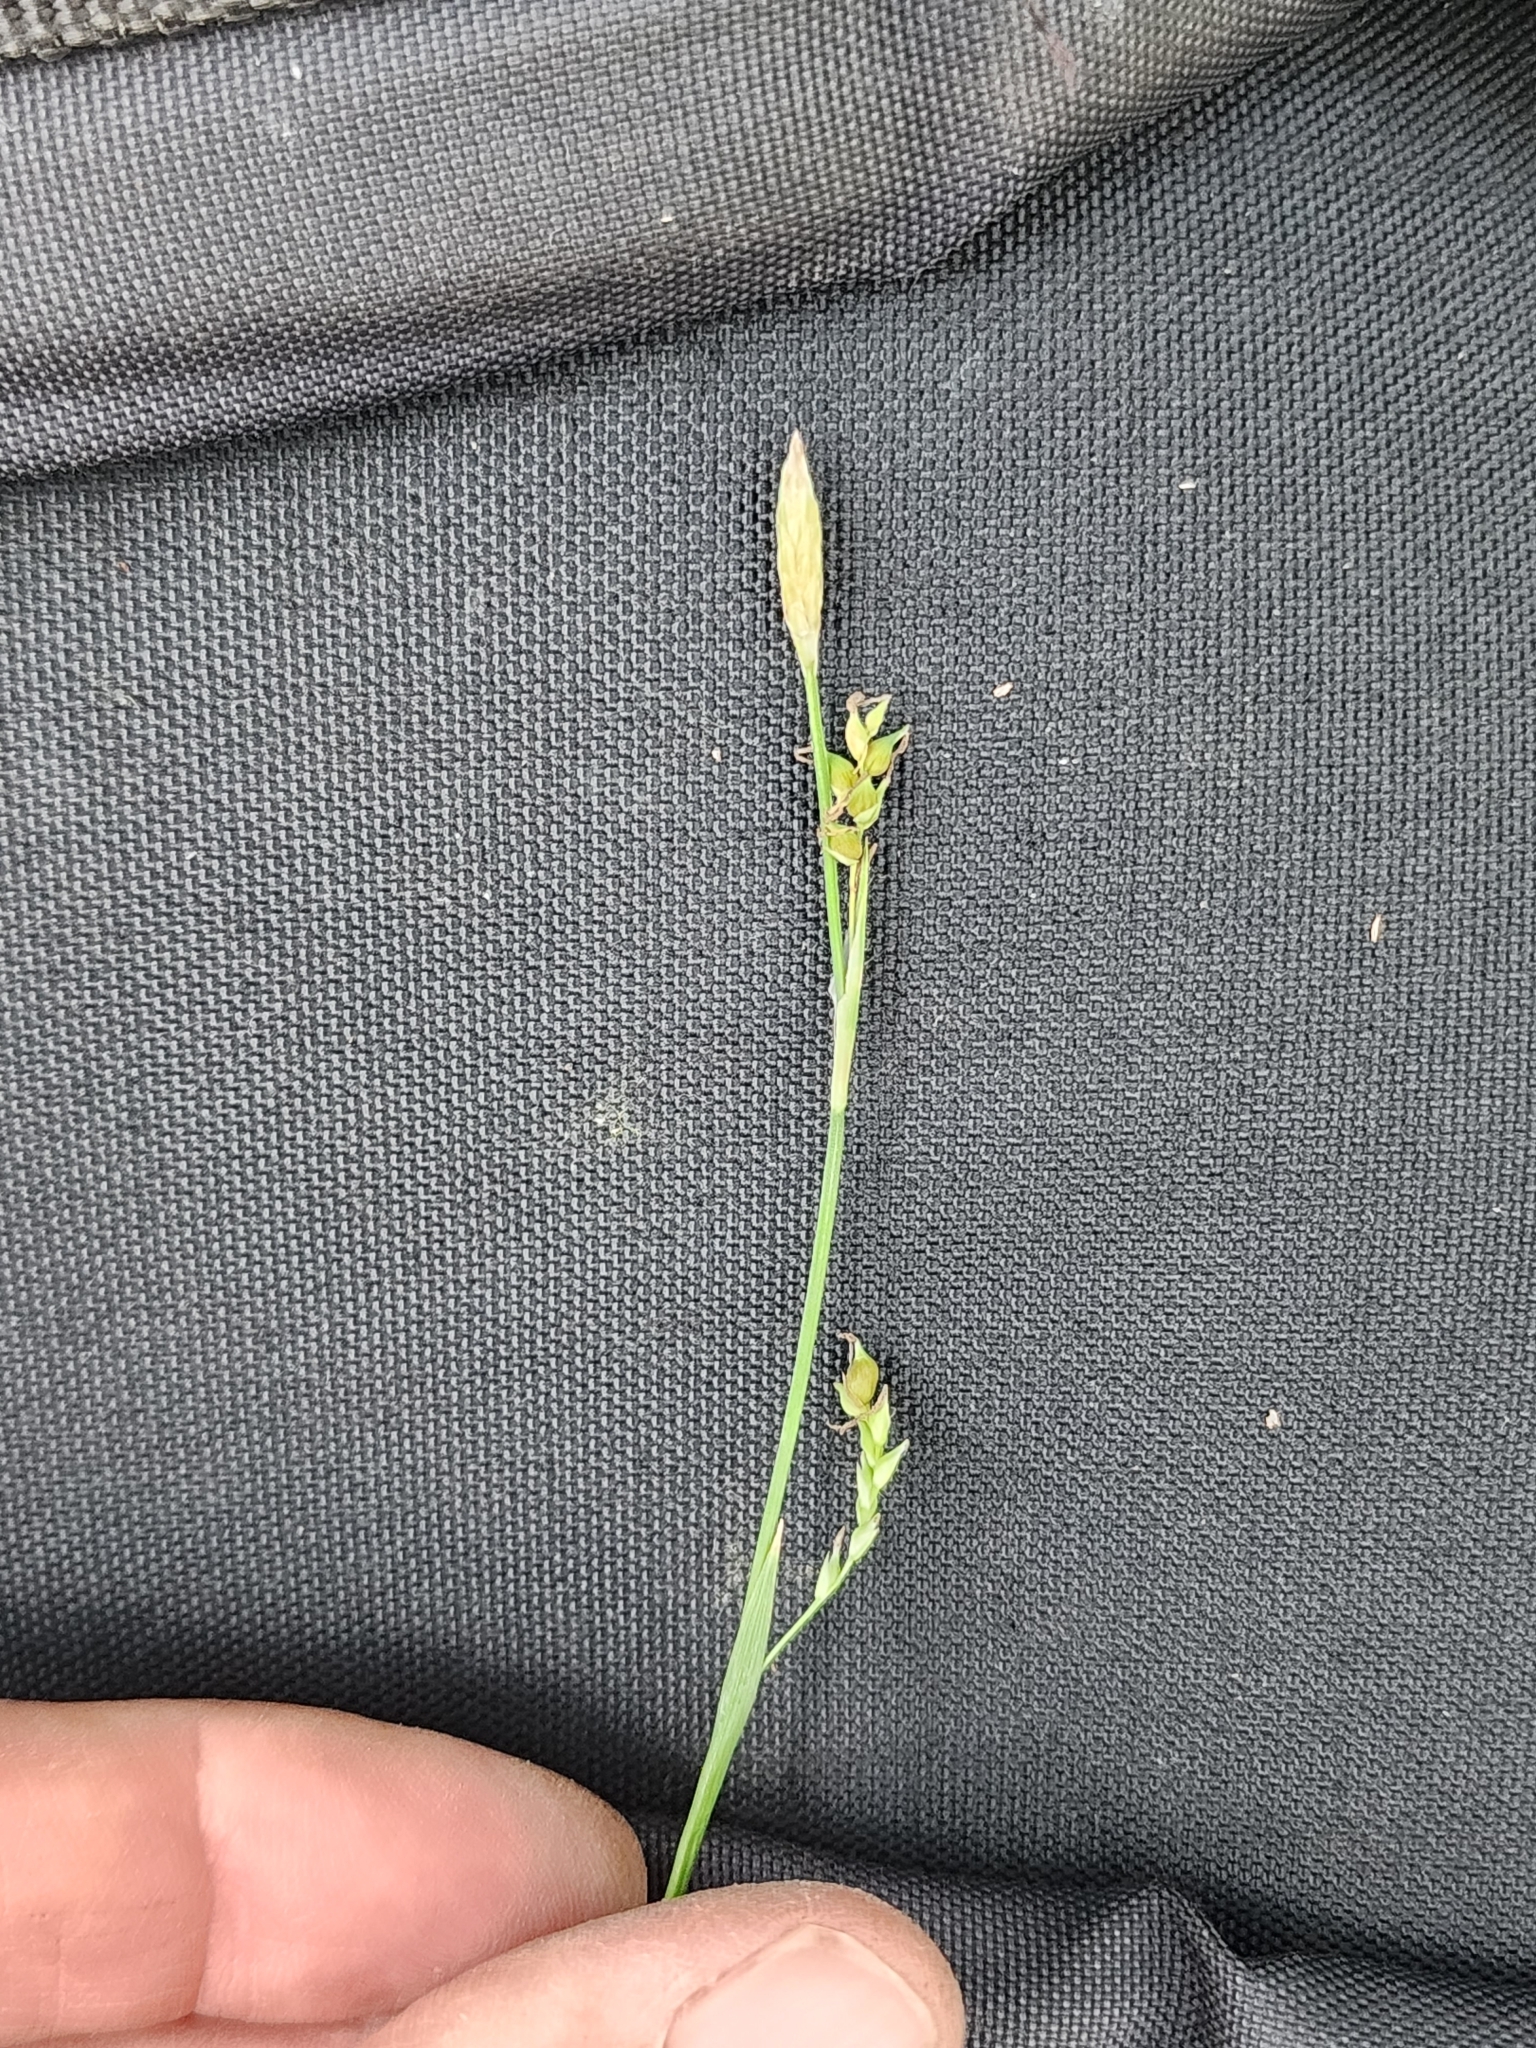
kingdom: Plantae
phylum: Tracheophyta
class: Liliopsida
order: Poales
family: Cyperaceae
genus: Carex
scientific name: Carex vaginata
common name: Sheathed sedge
